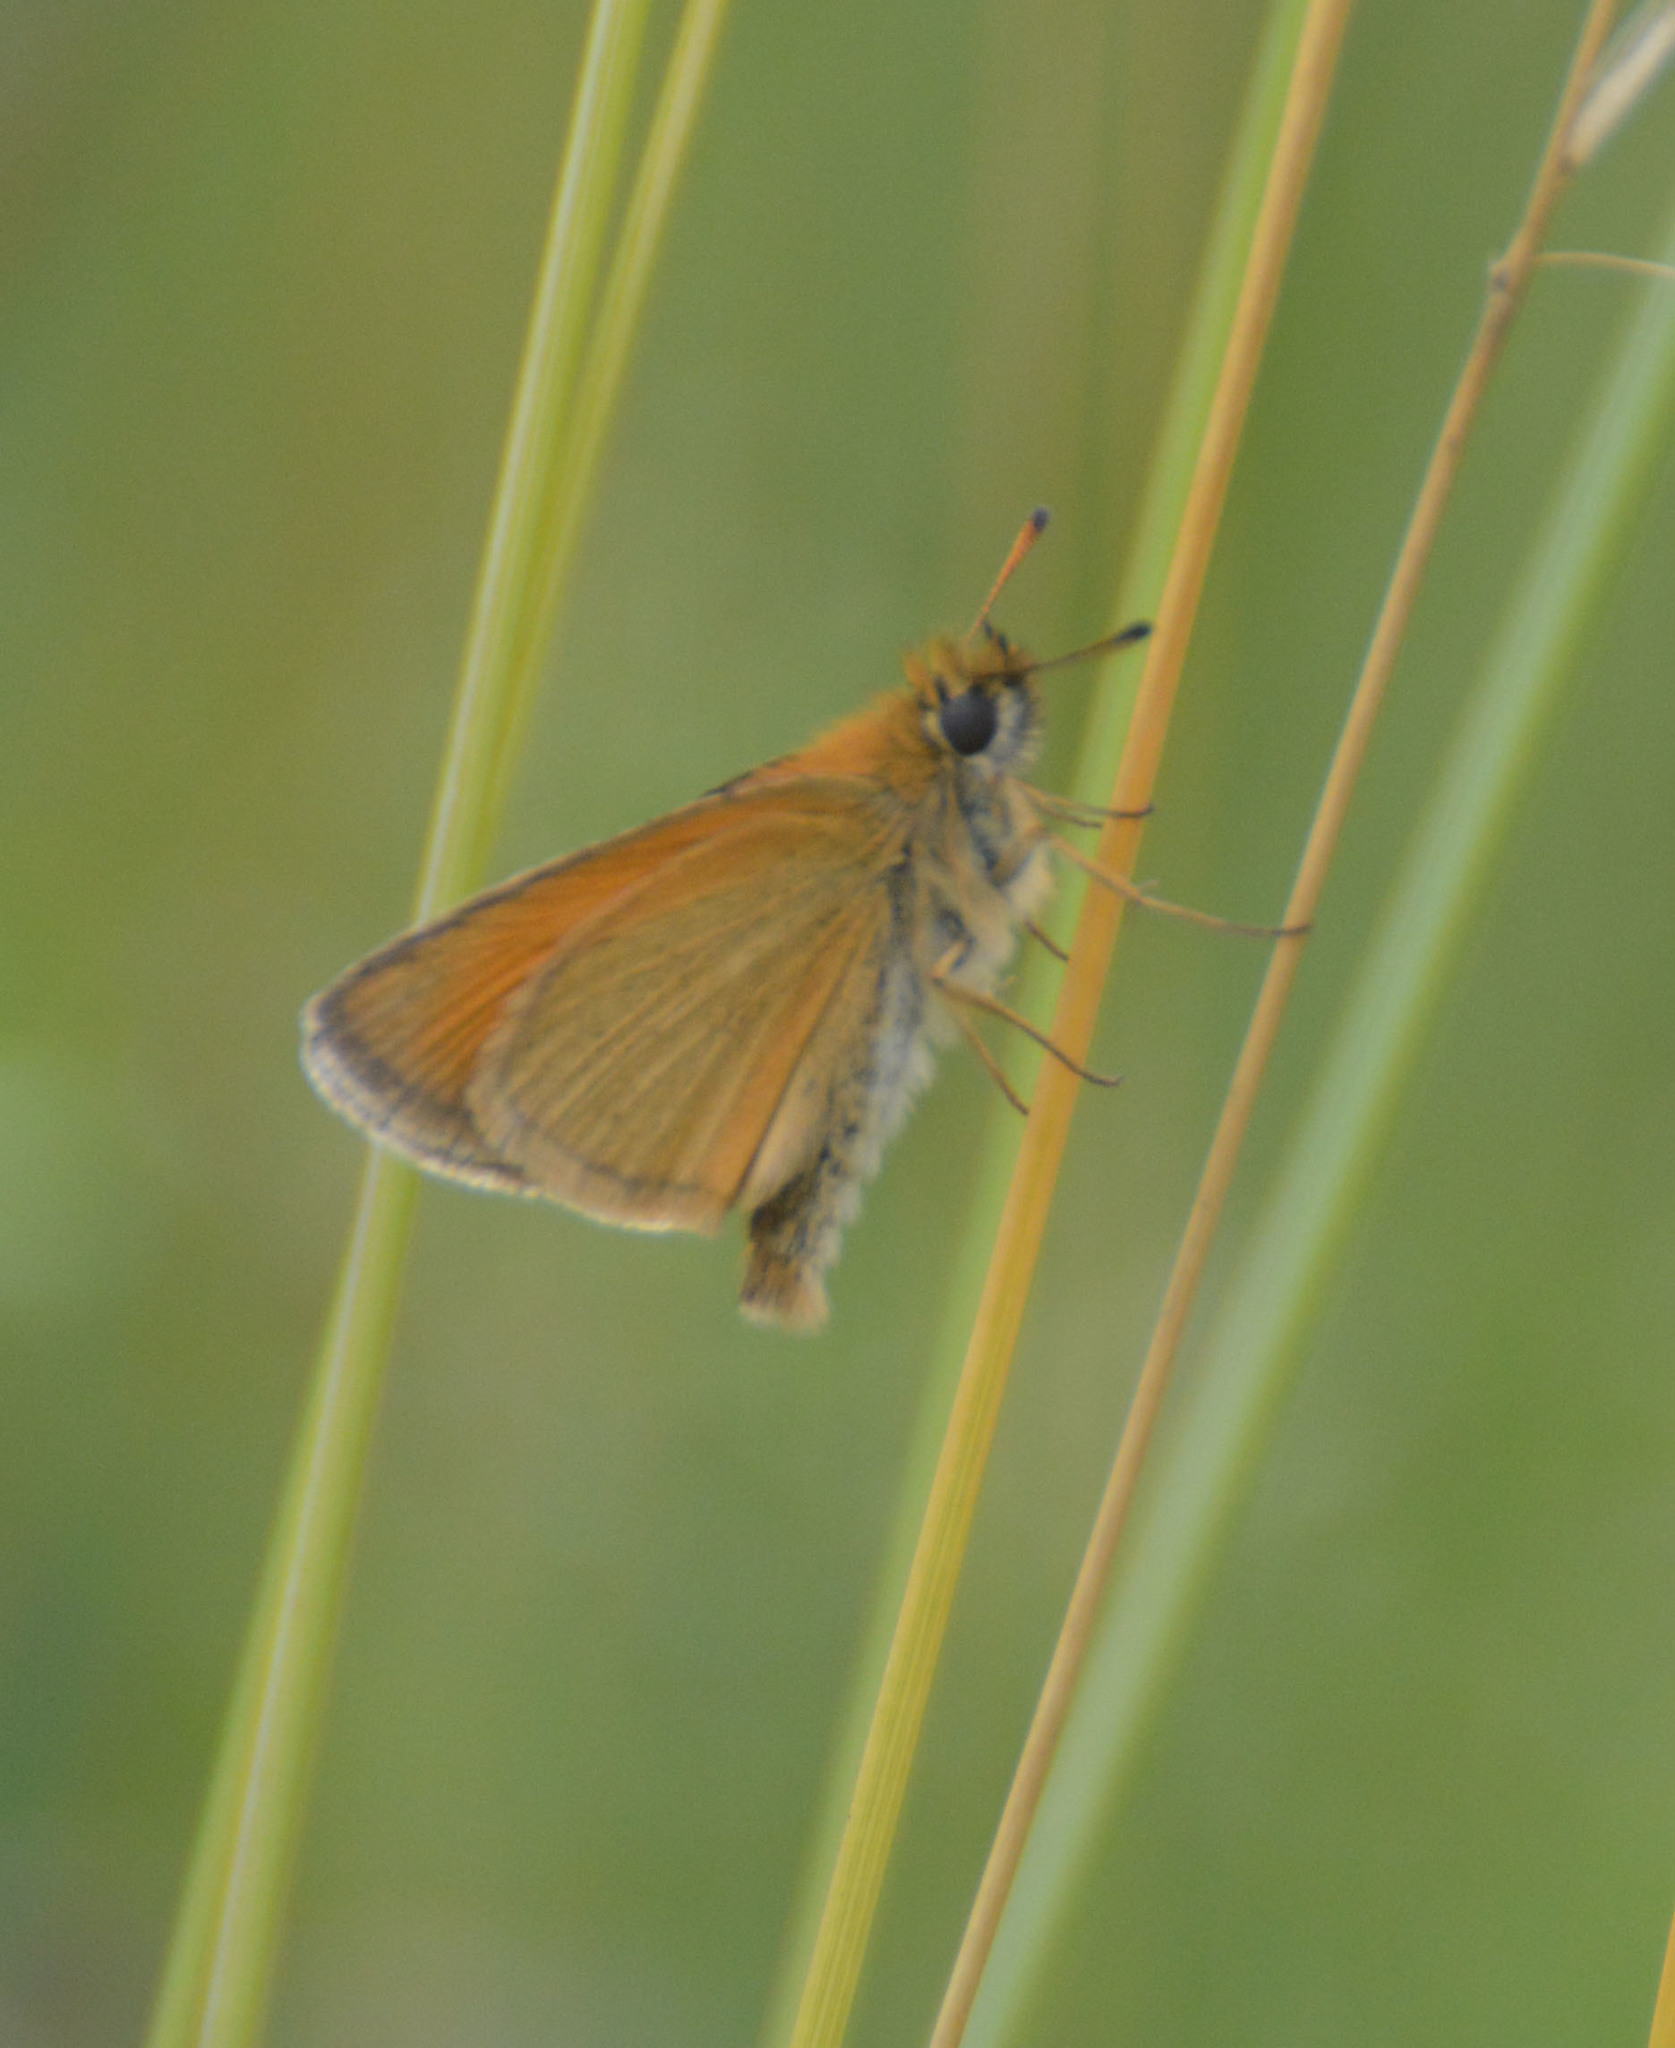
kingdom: Animalia
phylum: Arthropoda
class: Insecta
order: Lepidoptera
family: Hesperiidae
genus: Thymelicus
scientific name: Thymelicus lineola
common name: Essex skipper
